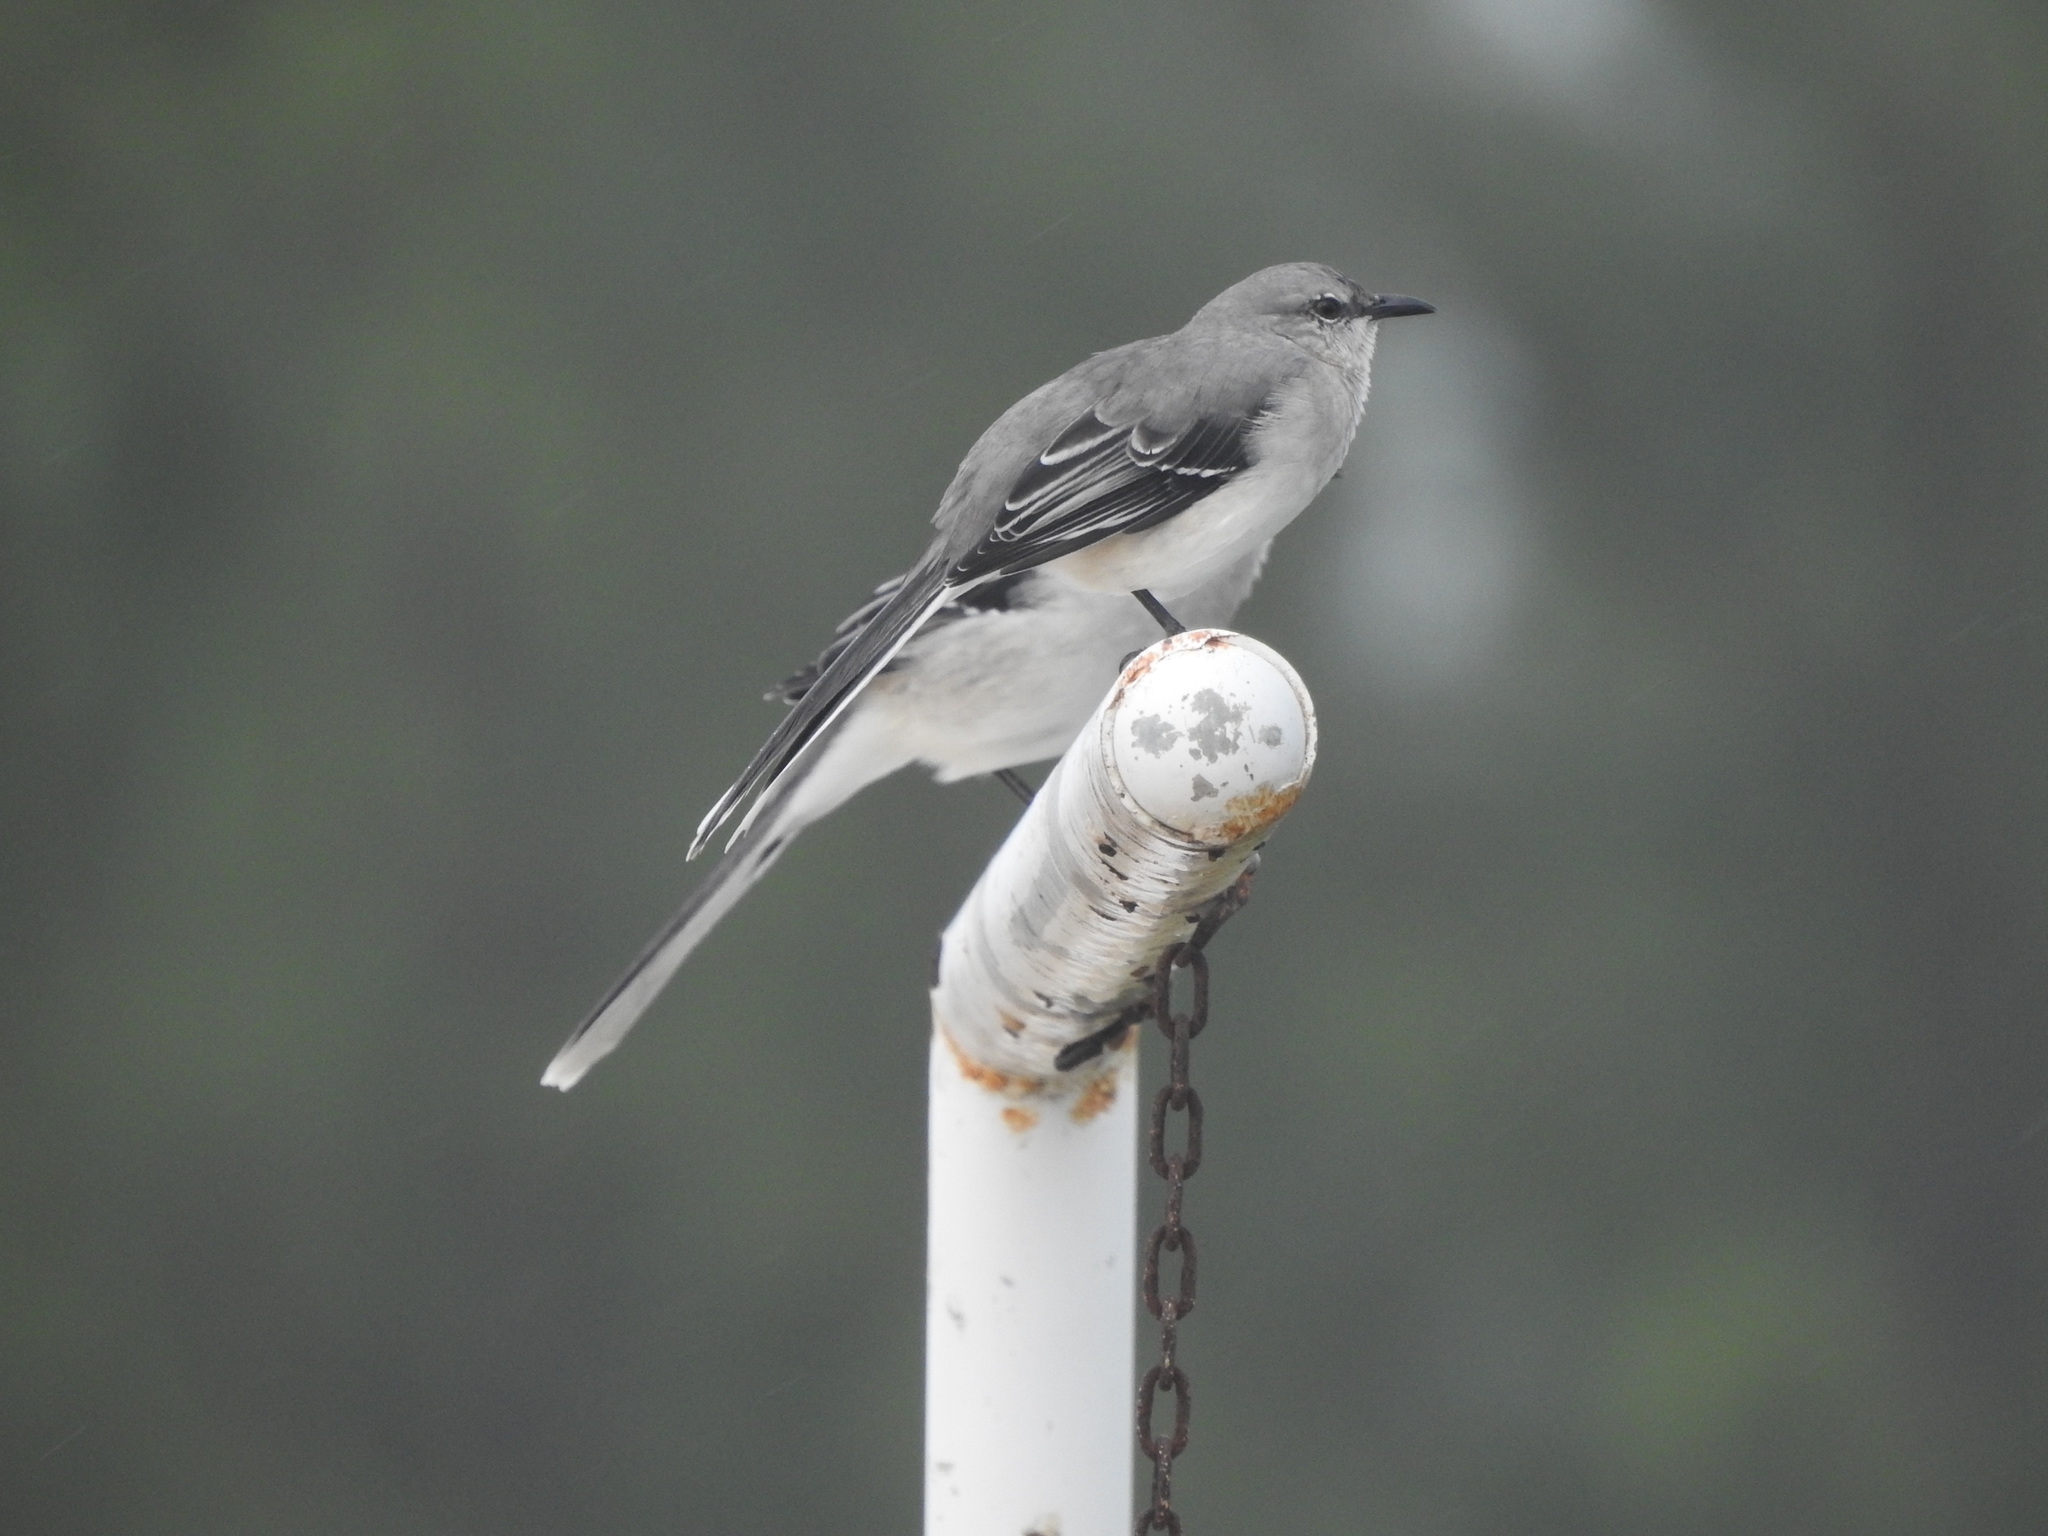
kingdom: Animalia
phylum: Chordata
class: Aves
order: Passeriformes
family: Mimidae
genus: Mimus
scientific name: Mimus gilvus
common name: Tropical mockingbird
